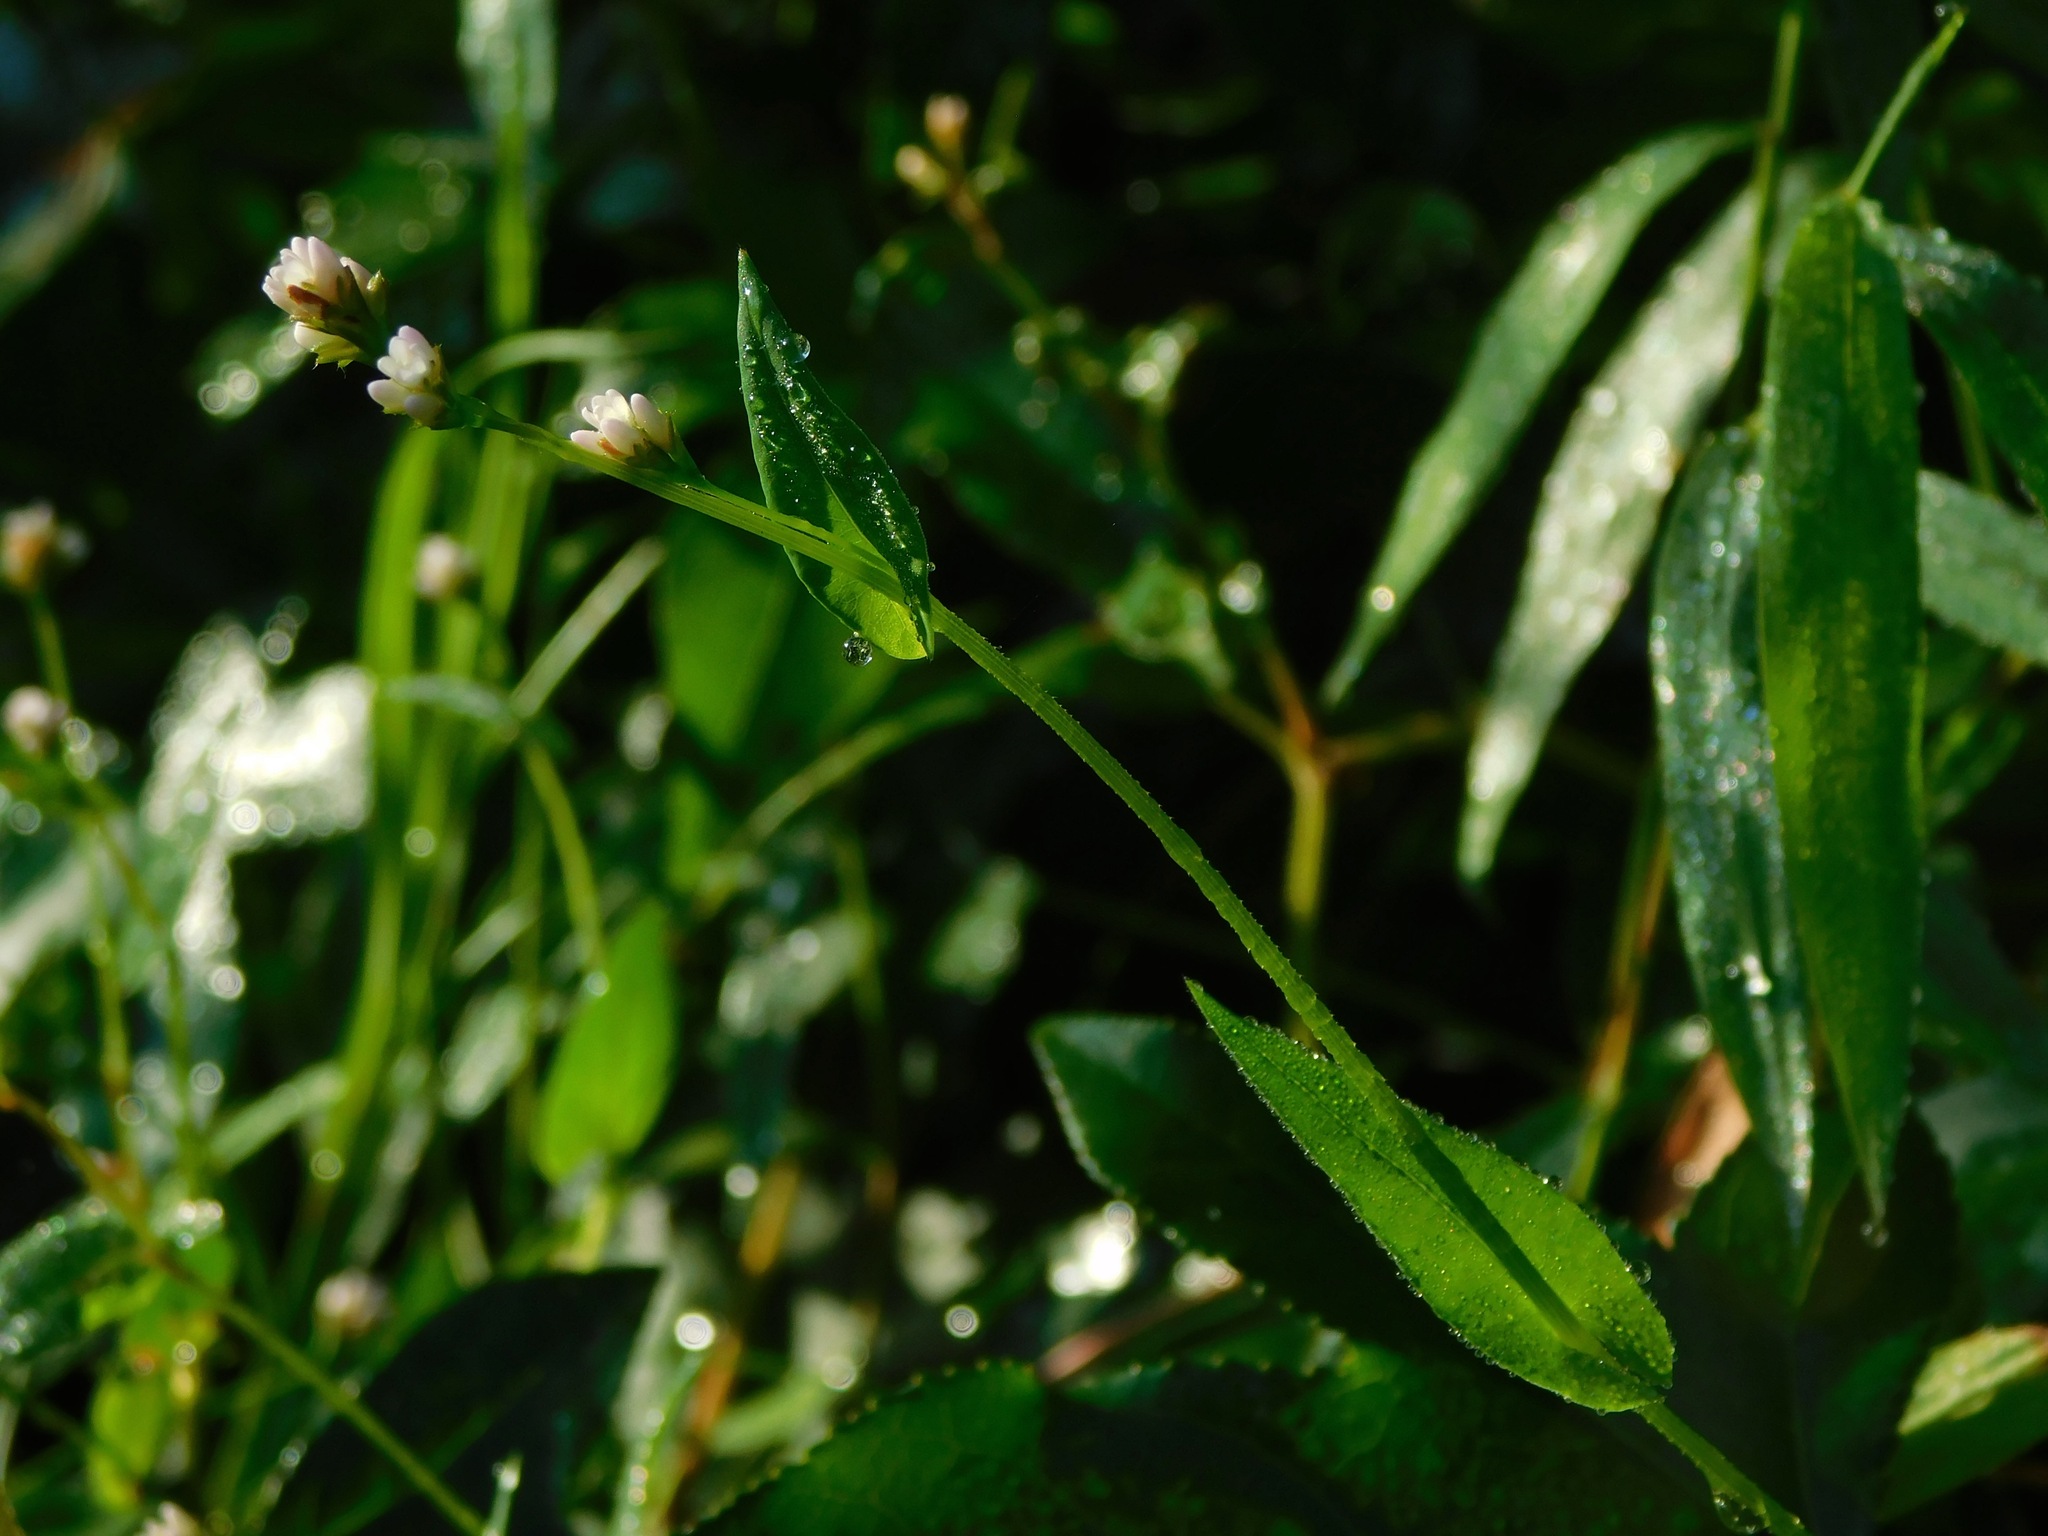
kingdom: Plantae
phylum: Tracheophyta
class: Magnoliopsida
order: Caryophyllales
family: Polygonaceae
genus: Persicaria
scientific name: Persicaria sagittata
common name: American tearthumb
